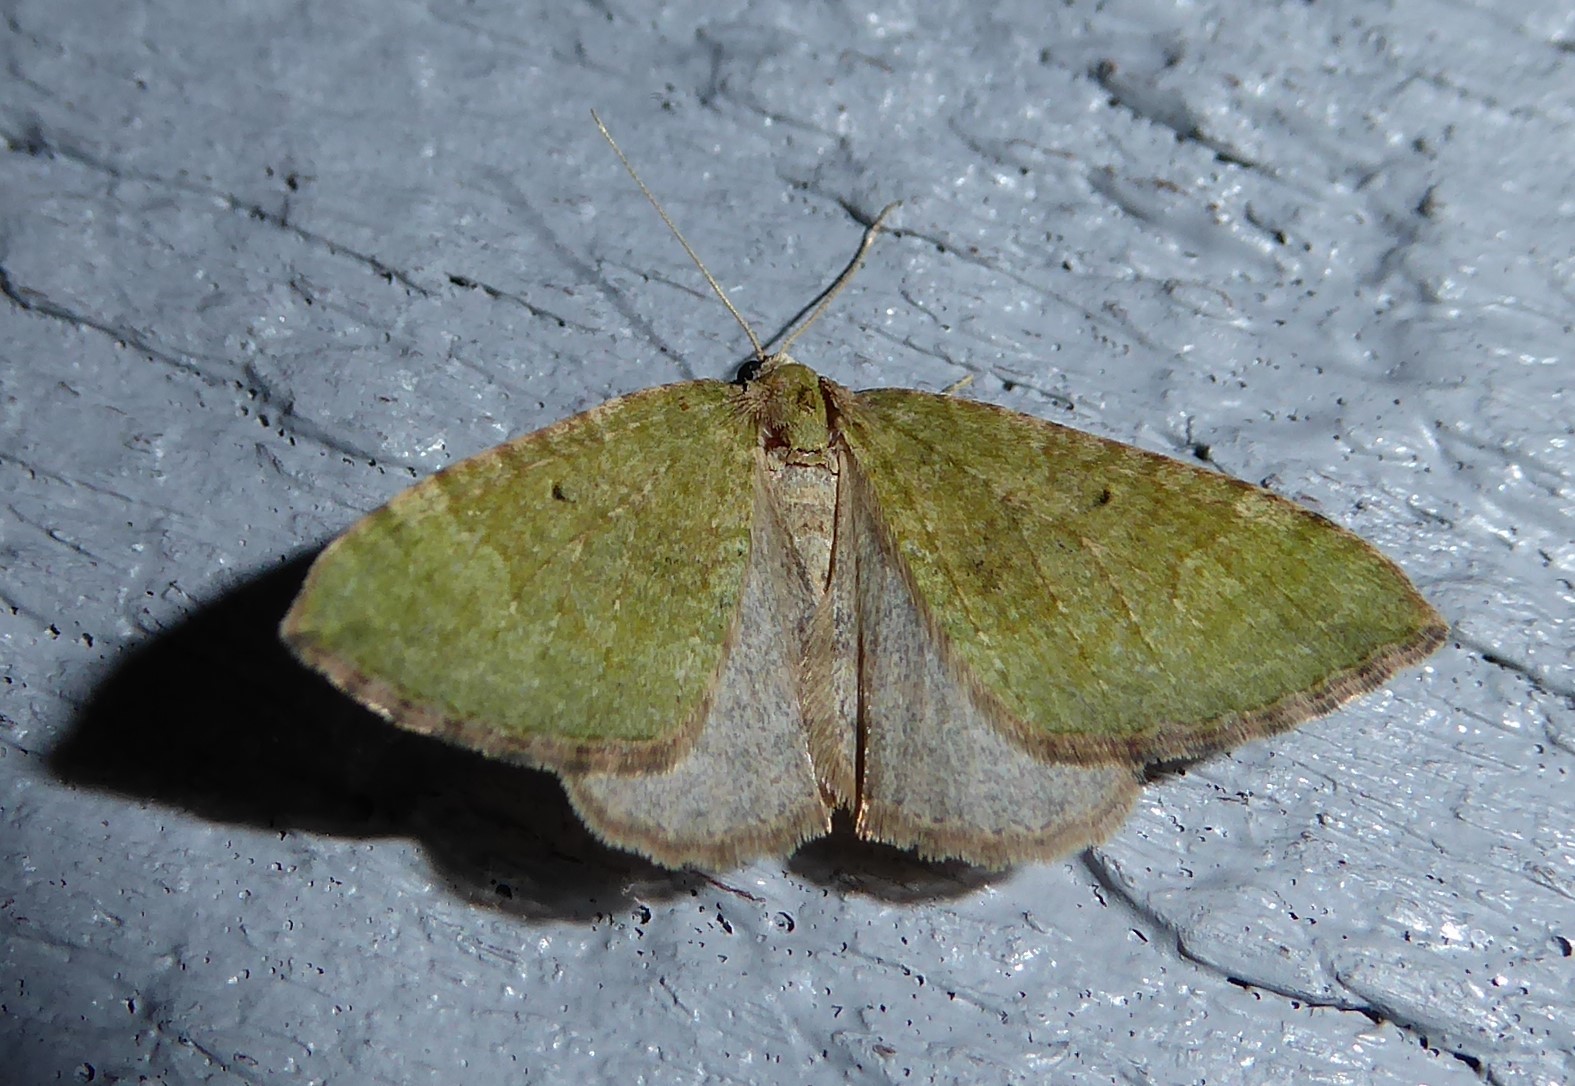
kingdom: Animalia
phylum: Arthropoda
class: Insecta
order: Lepidoptera
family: Geometridae
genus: Epyaxa
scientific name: Epyaxa rosearia
